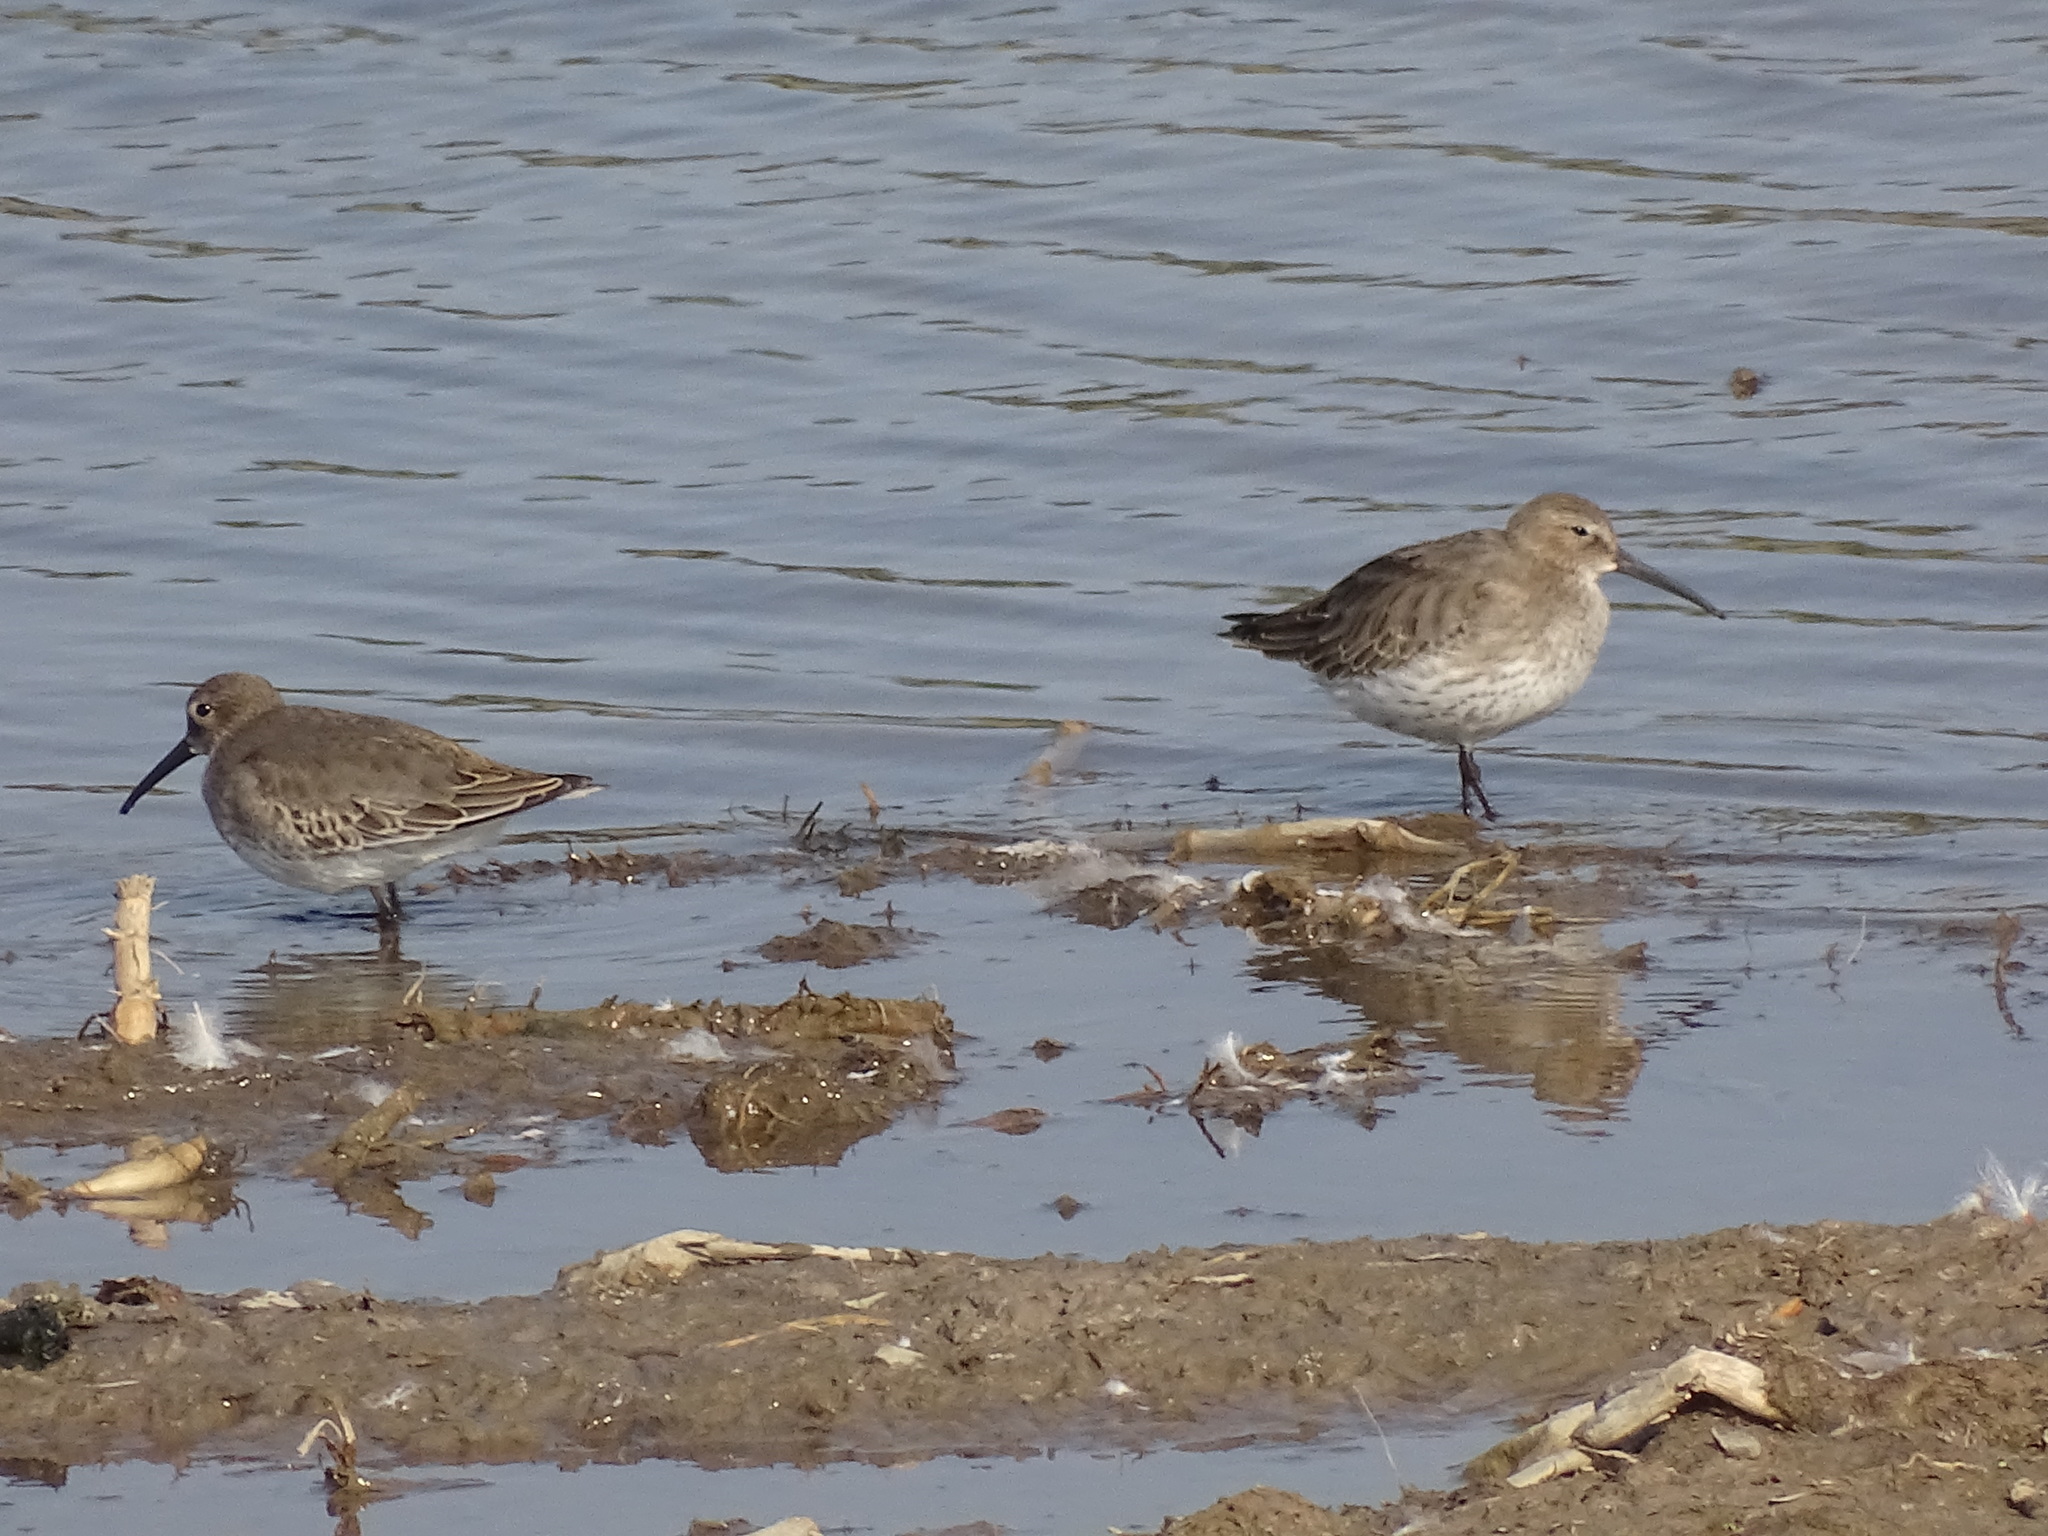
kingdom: Animalia
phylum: Chordata
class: Aves
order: Charadriiformes
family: Scolopacidae
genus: Calidris
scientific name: Calidris alpina
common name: Dunlin
